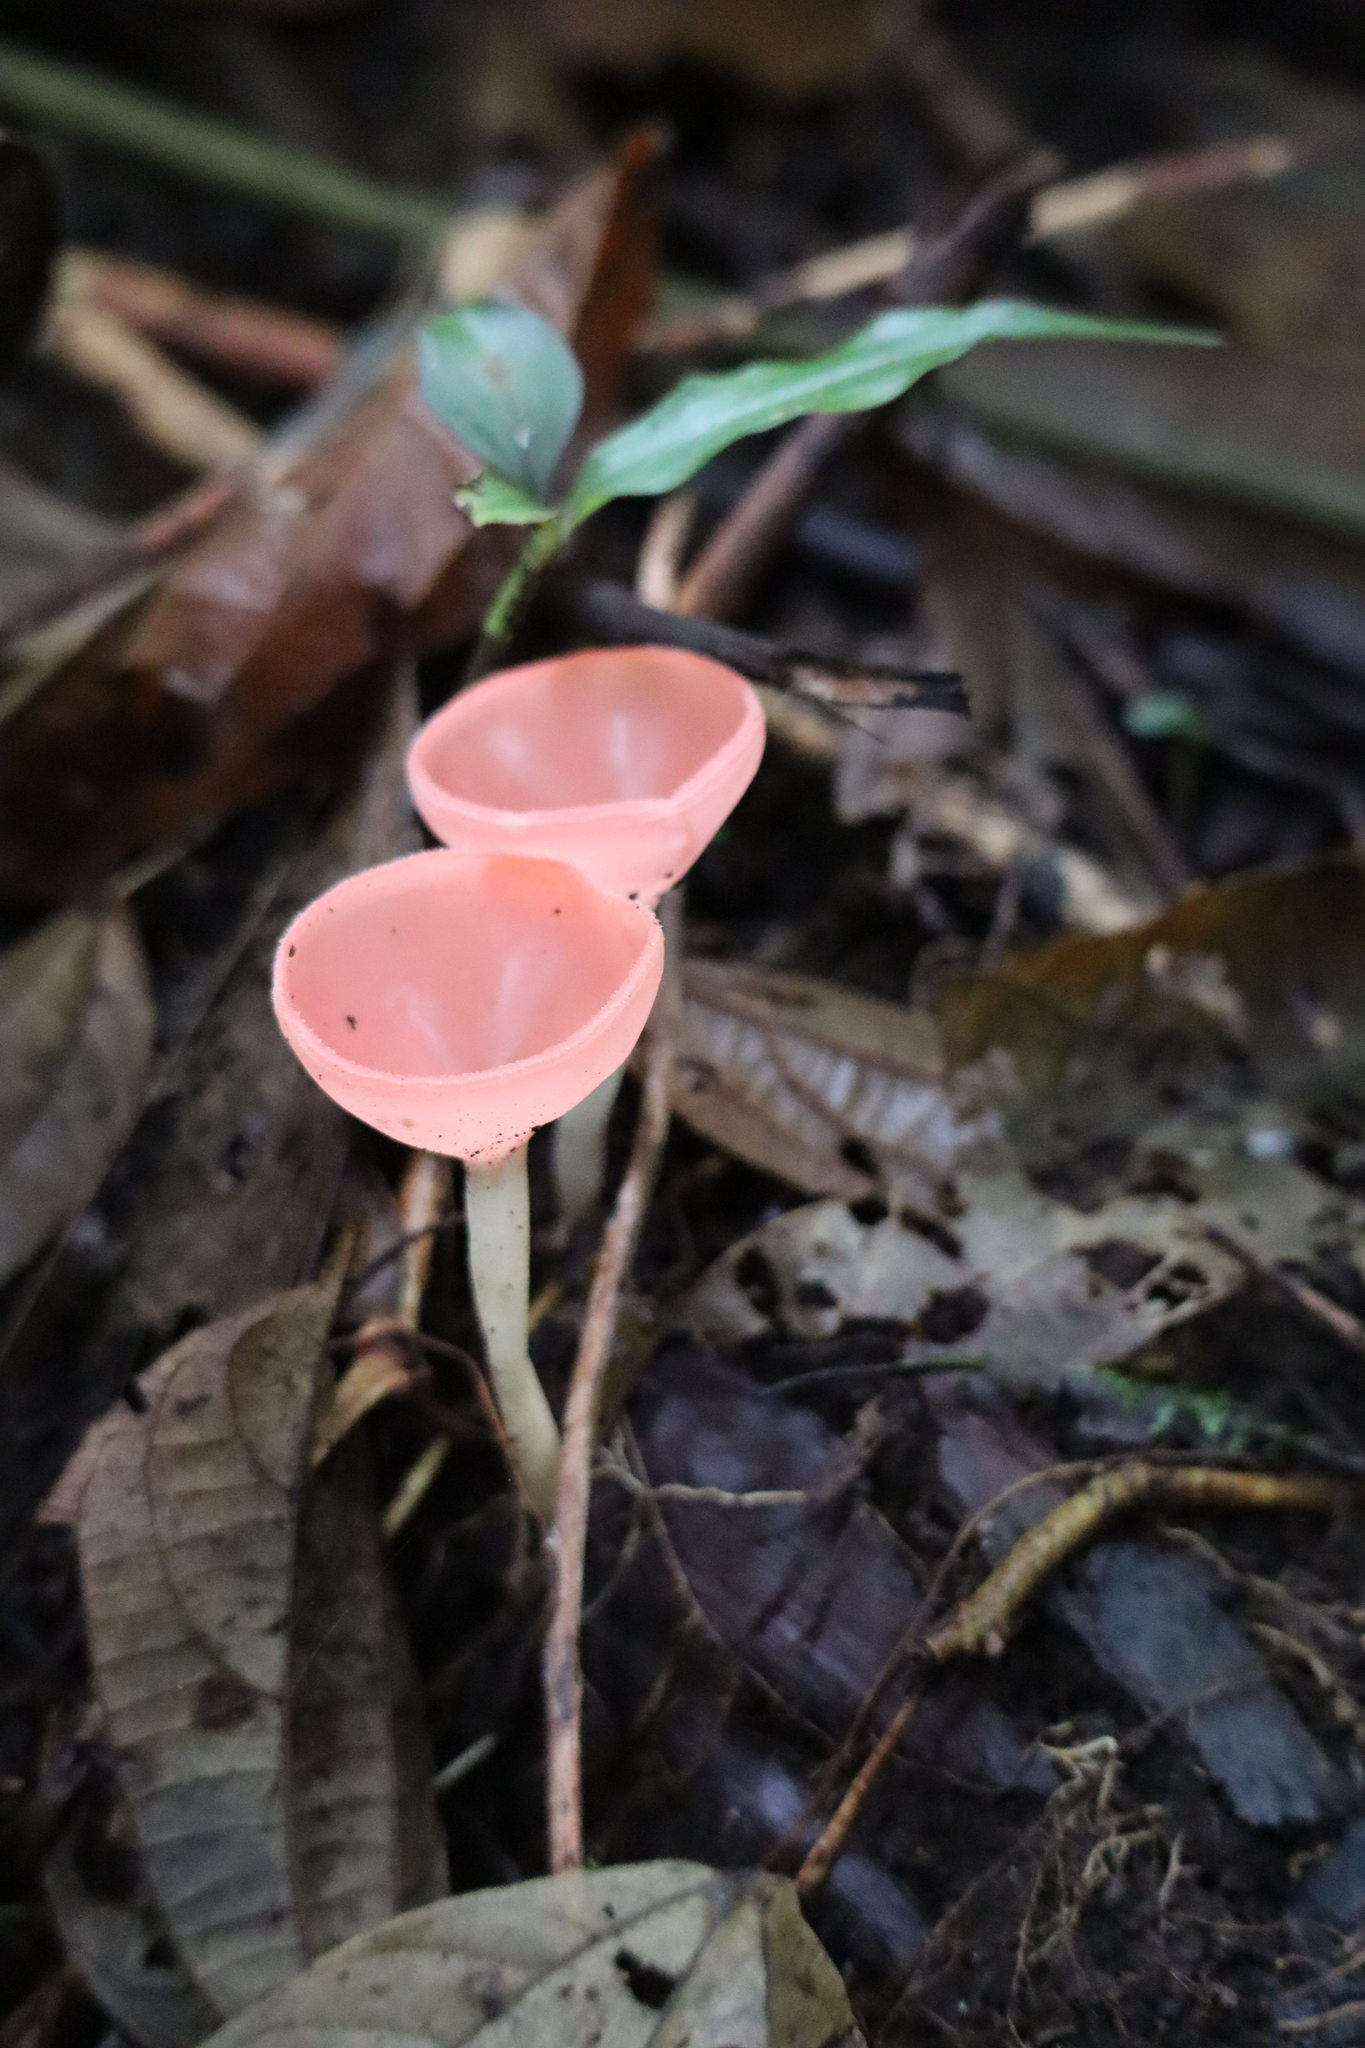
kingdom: Fungi
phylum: Ascomycota
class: Pezizomycetes
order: Pezizales
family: Sarcoscyphaceae
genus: Cookeina
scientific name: Cookeina speciosa
